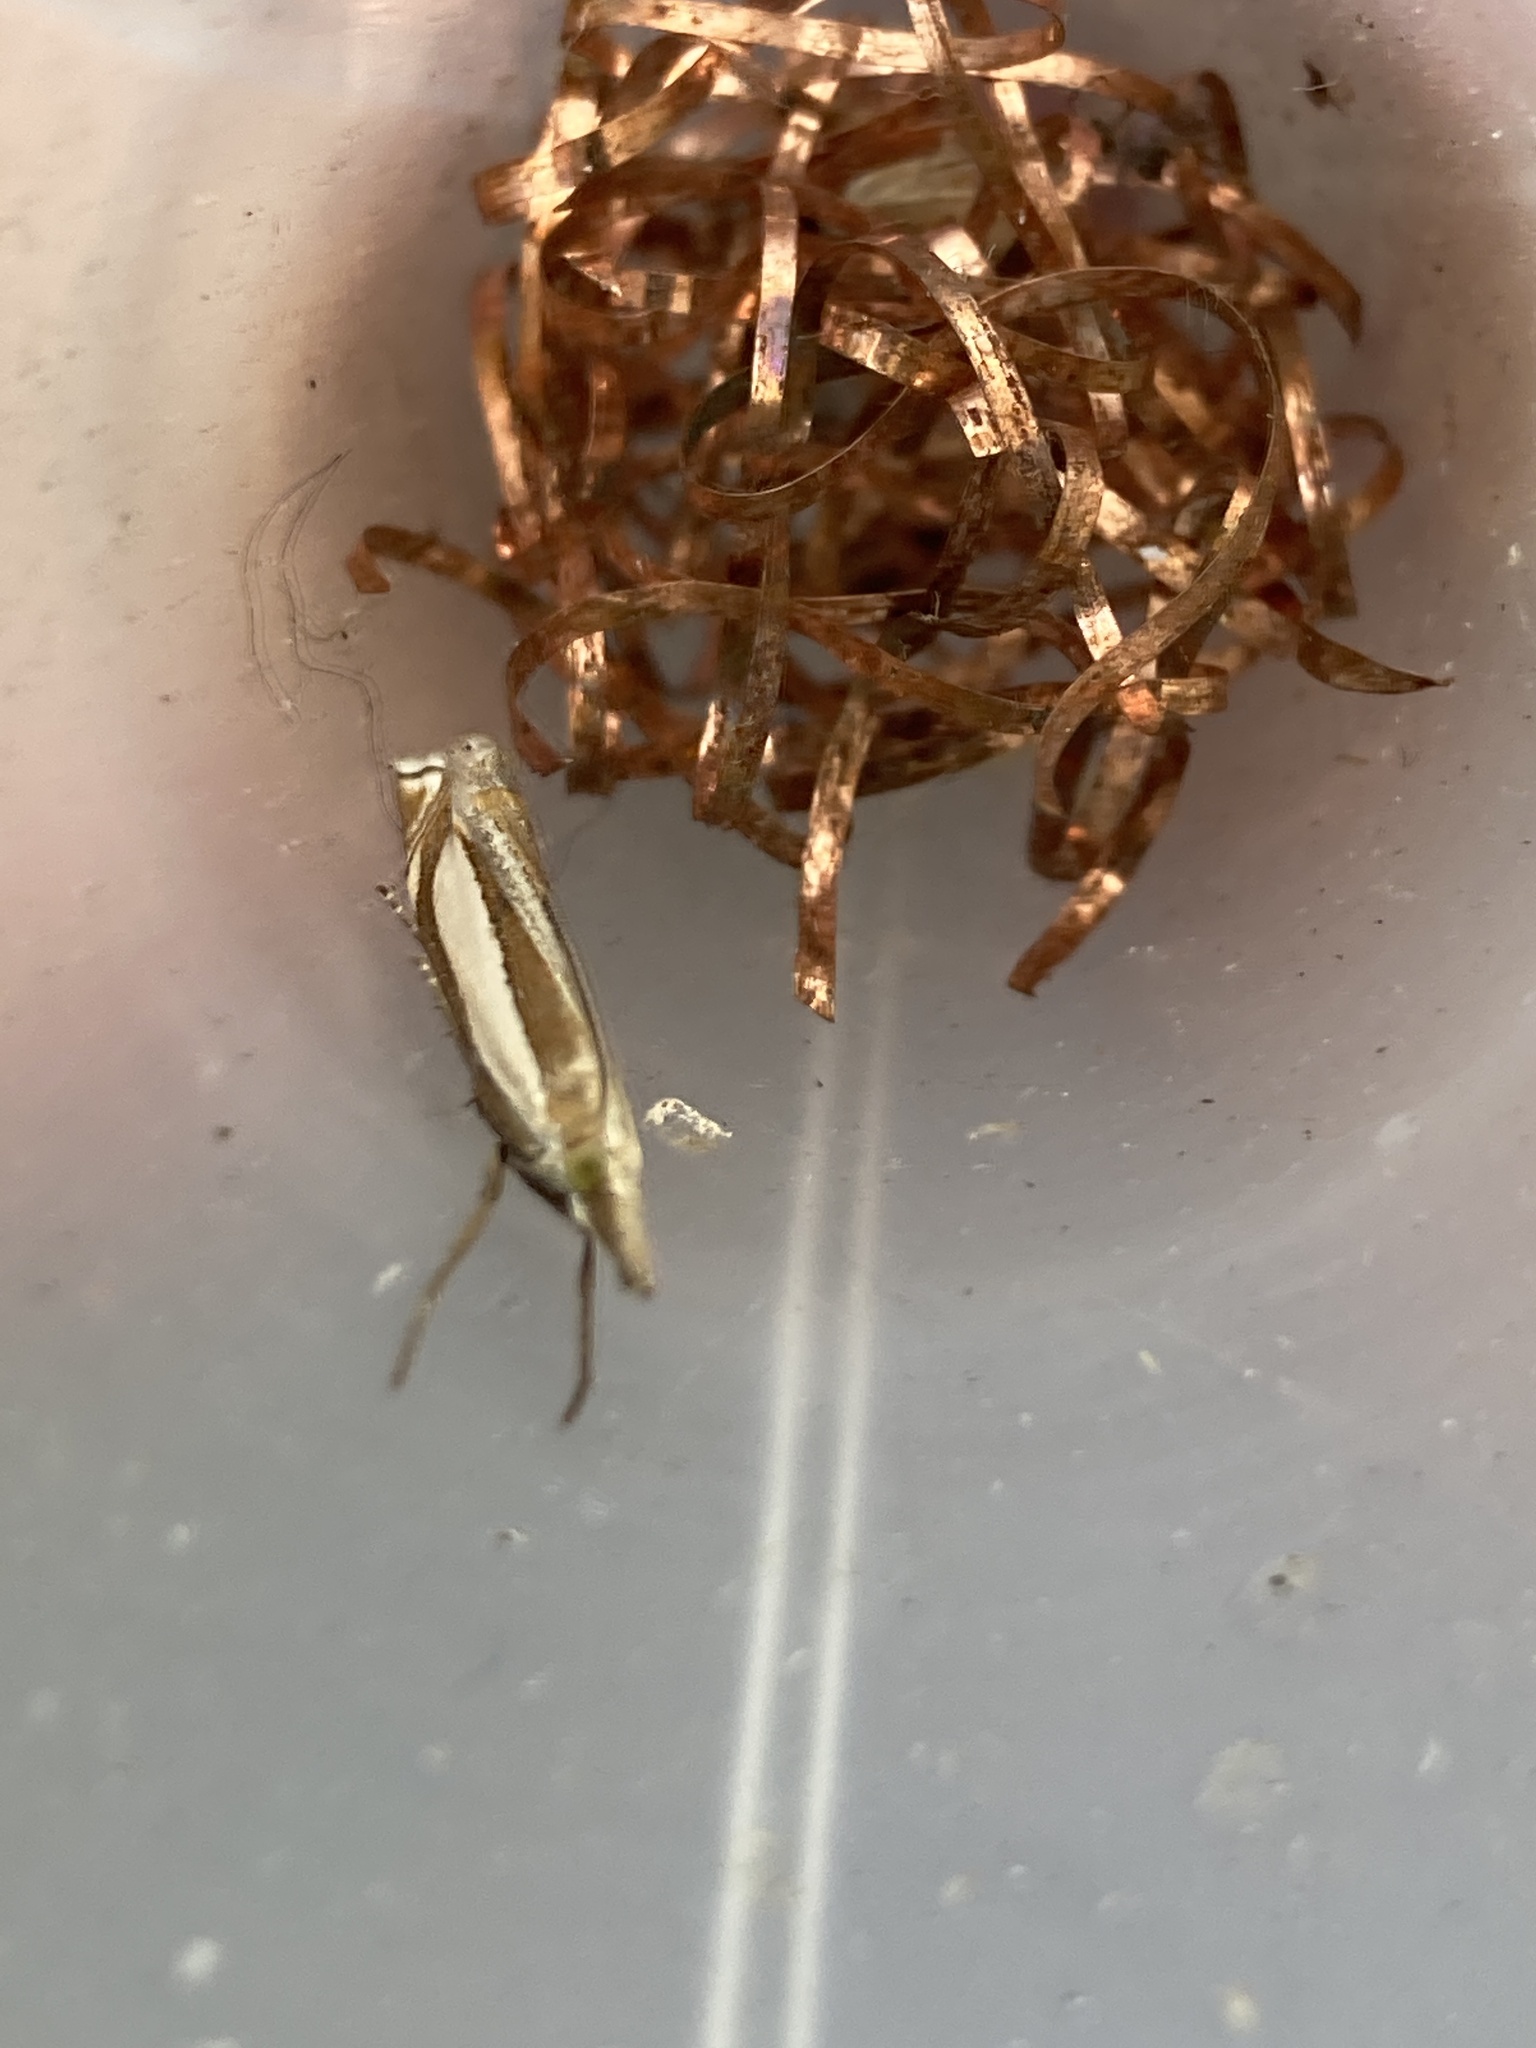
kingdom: Animalia
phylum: Arthropoda
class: Insecta
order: Lepidoptera
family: Crambidae
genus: Crambus
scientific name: Crambus pascuella
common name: Inlaid grass-veneer
